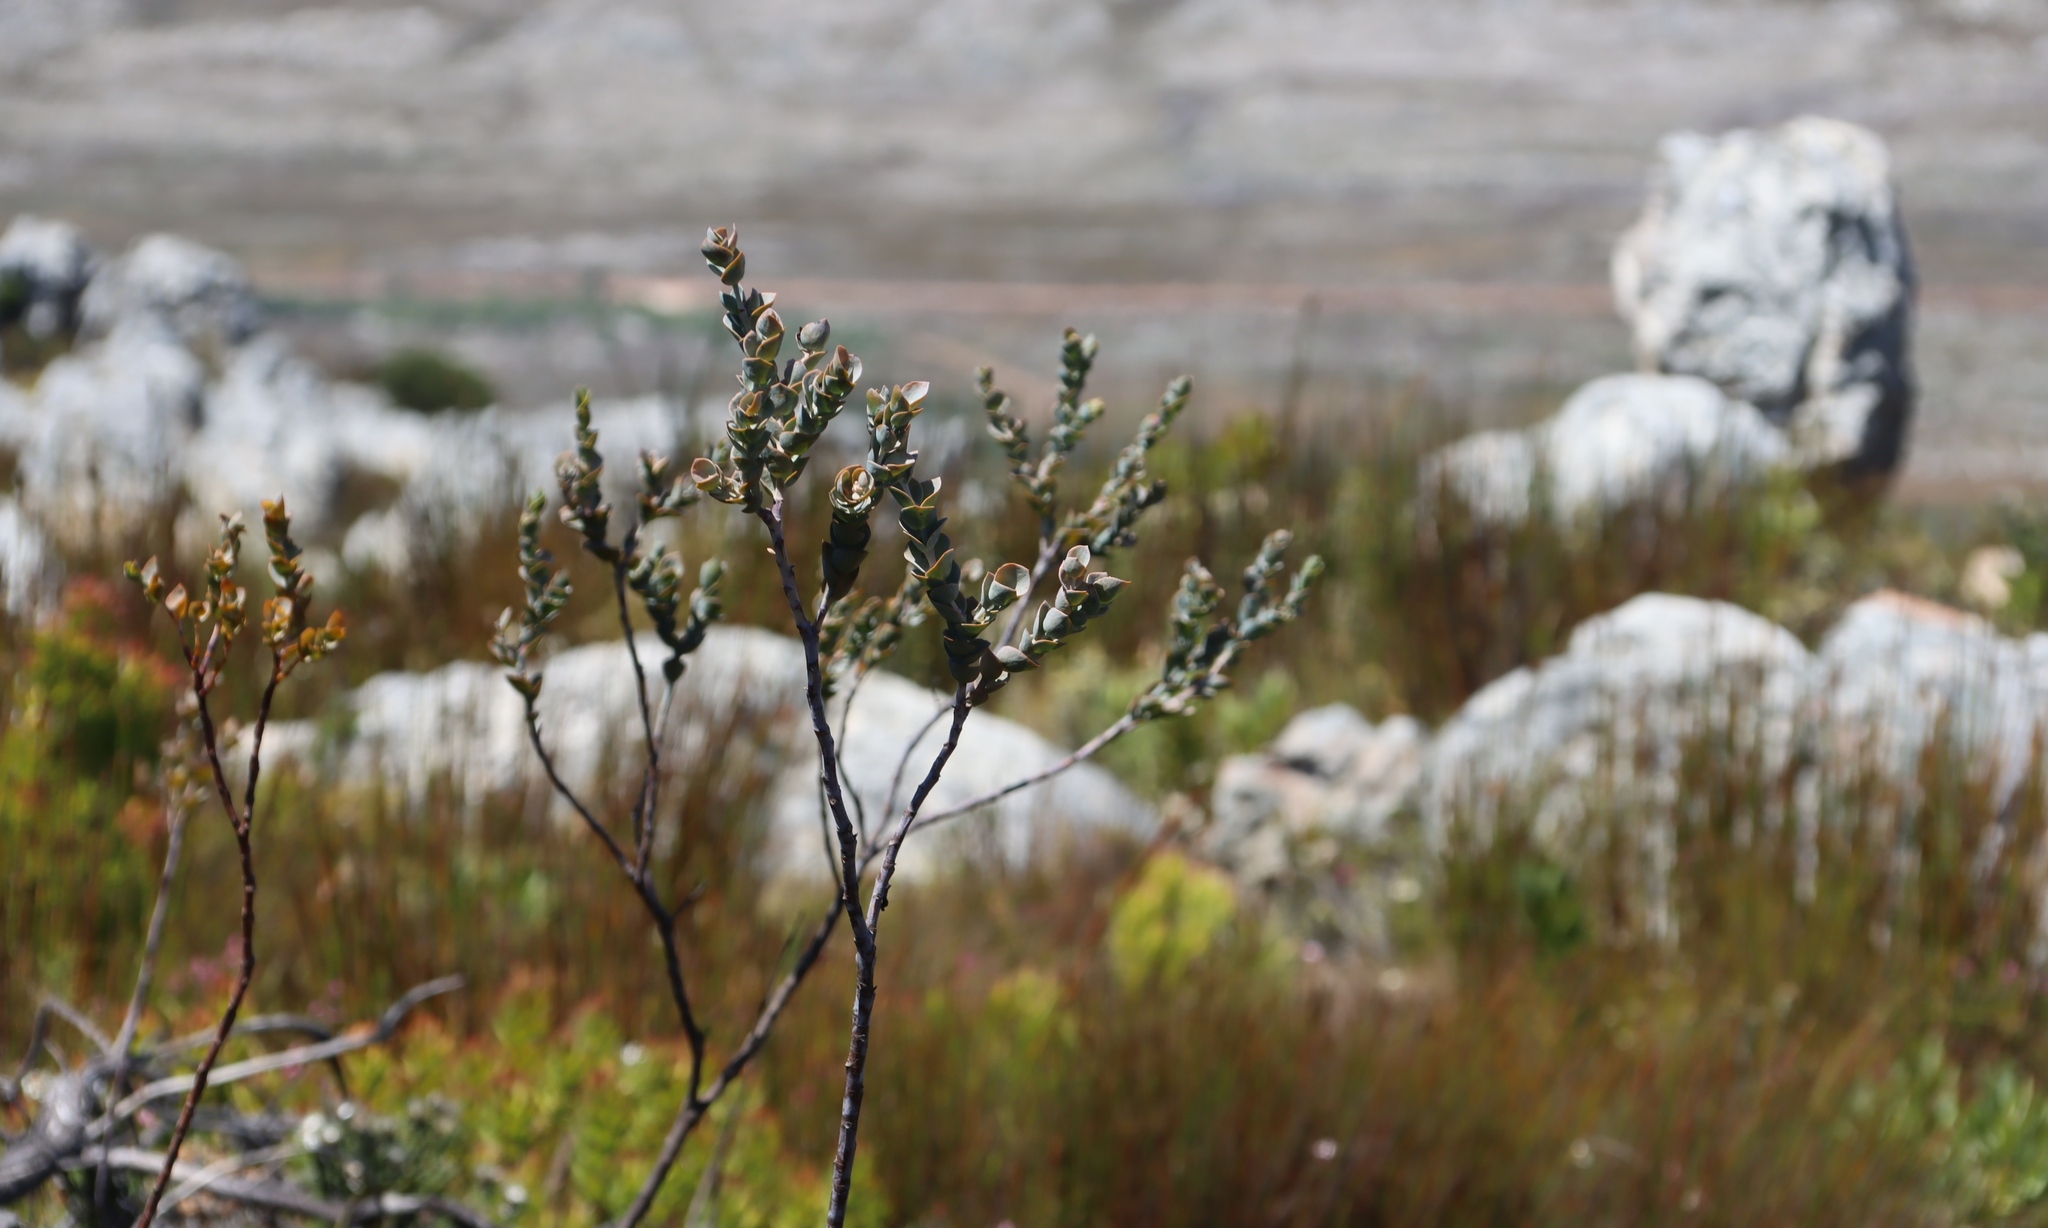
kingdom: Plantae
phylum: Tracheophyta
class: Magnoliopsida
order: Santalales
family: Thesiaceae
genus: Thesium
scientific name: Thesium euphorbioides
